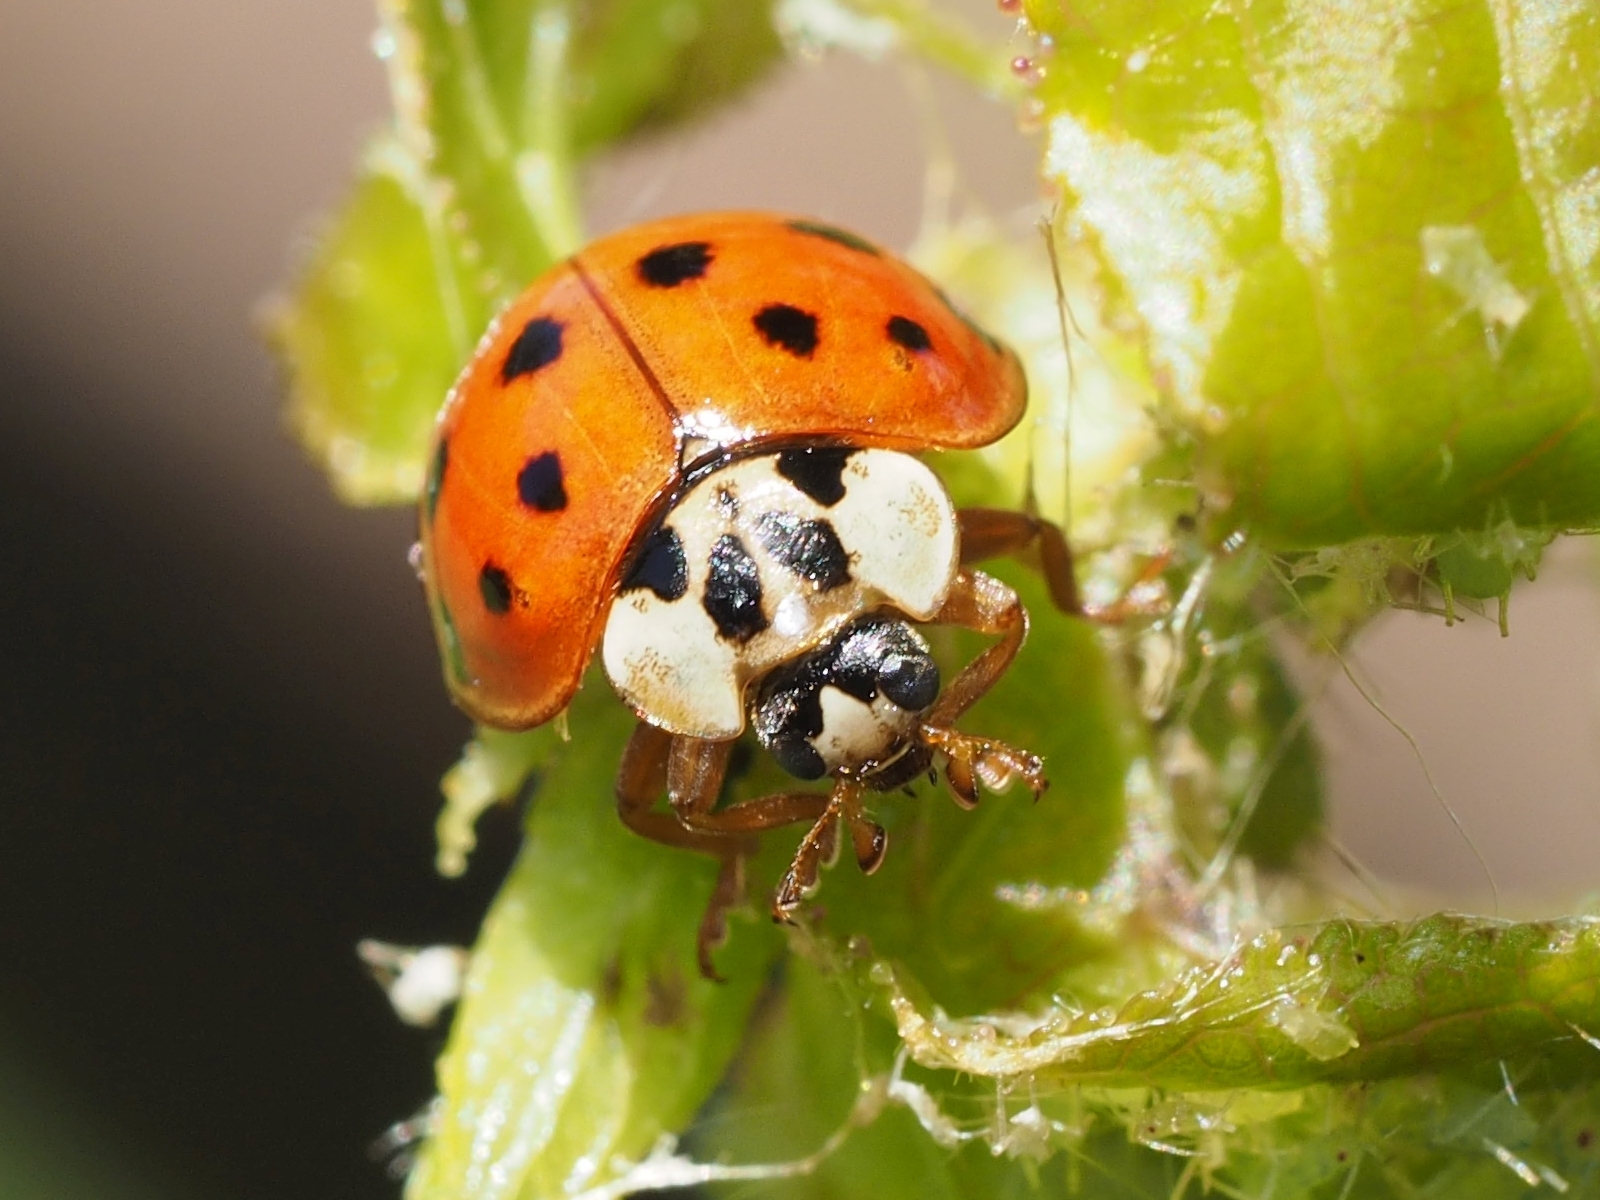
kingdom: Animalia
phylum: Arthropoda
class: Insecta
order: Coleoptera
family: Coccinellidae
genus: Harmonia
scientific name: Harmonia axyridis
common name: Harlequin ladybird
